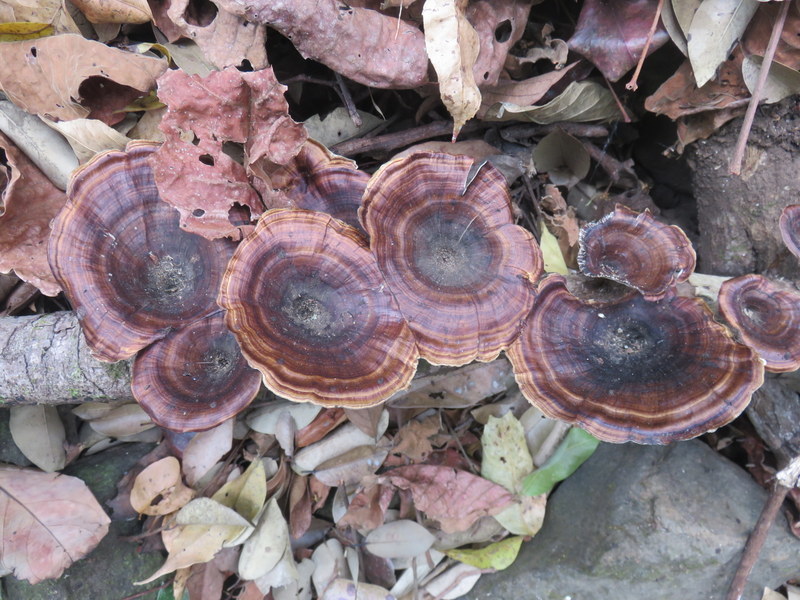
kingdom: Fungi
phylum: Basidiomycota
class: Agaricomycetes
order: Polyporales
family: Polyporaceae
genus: Microporus
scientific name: Microporus xanthopus
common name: Yellow-stemmed micropore
